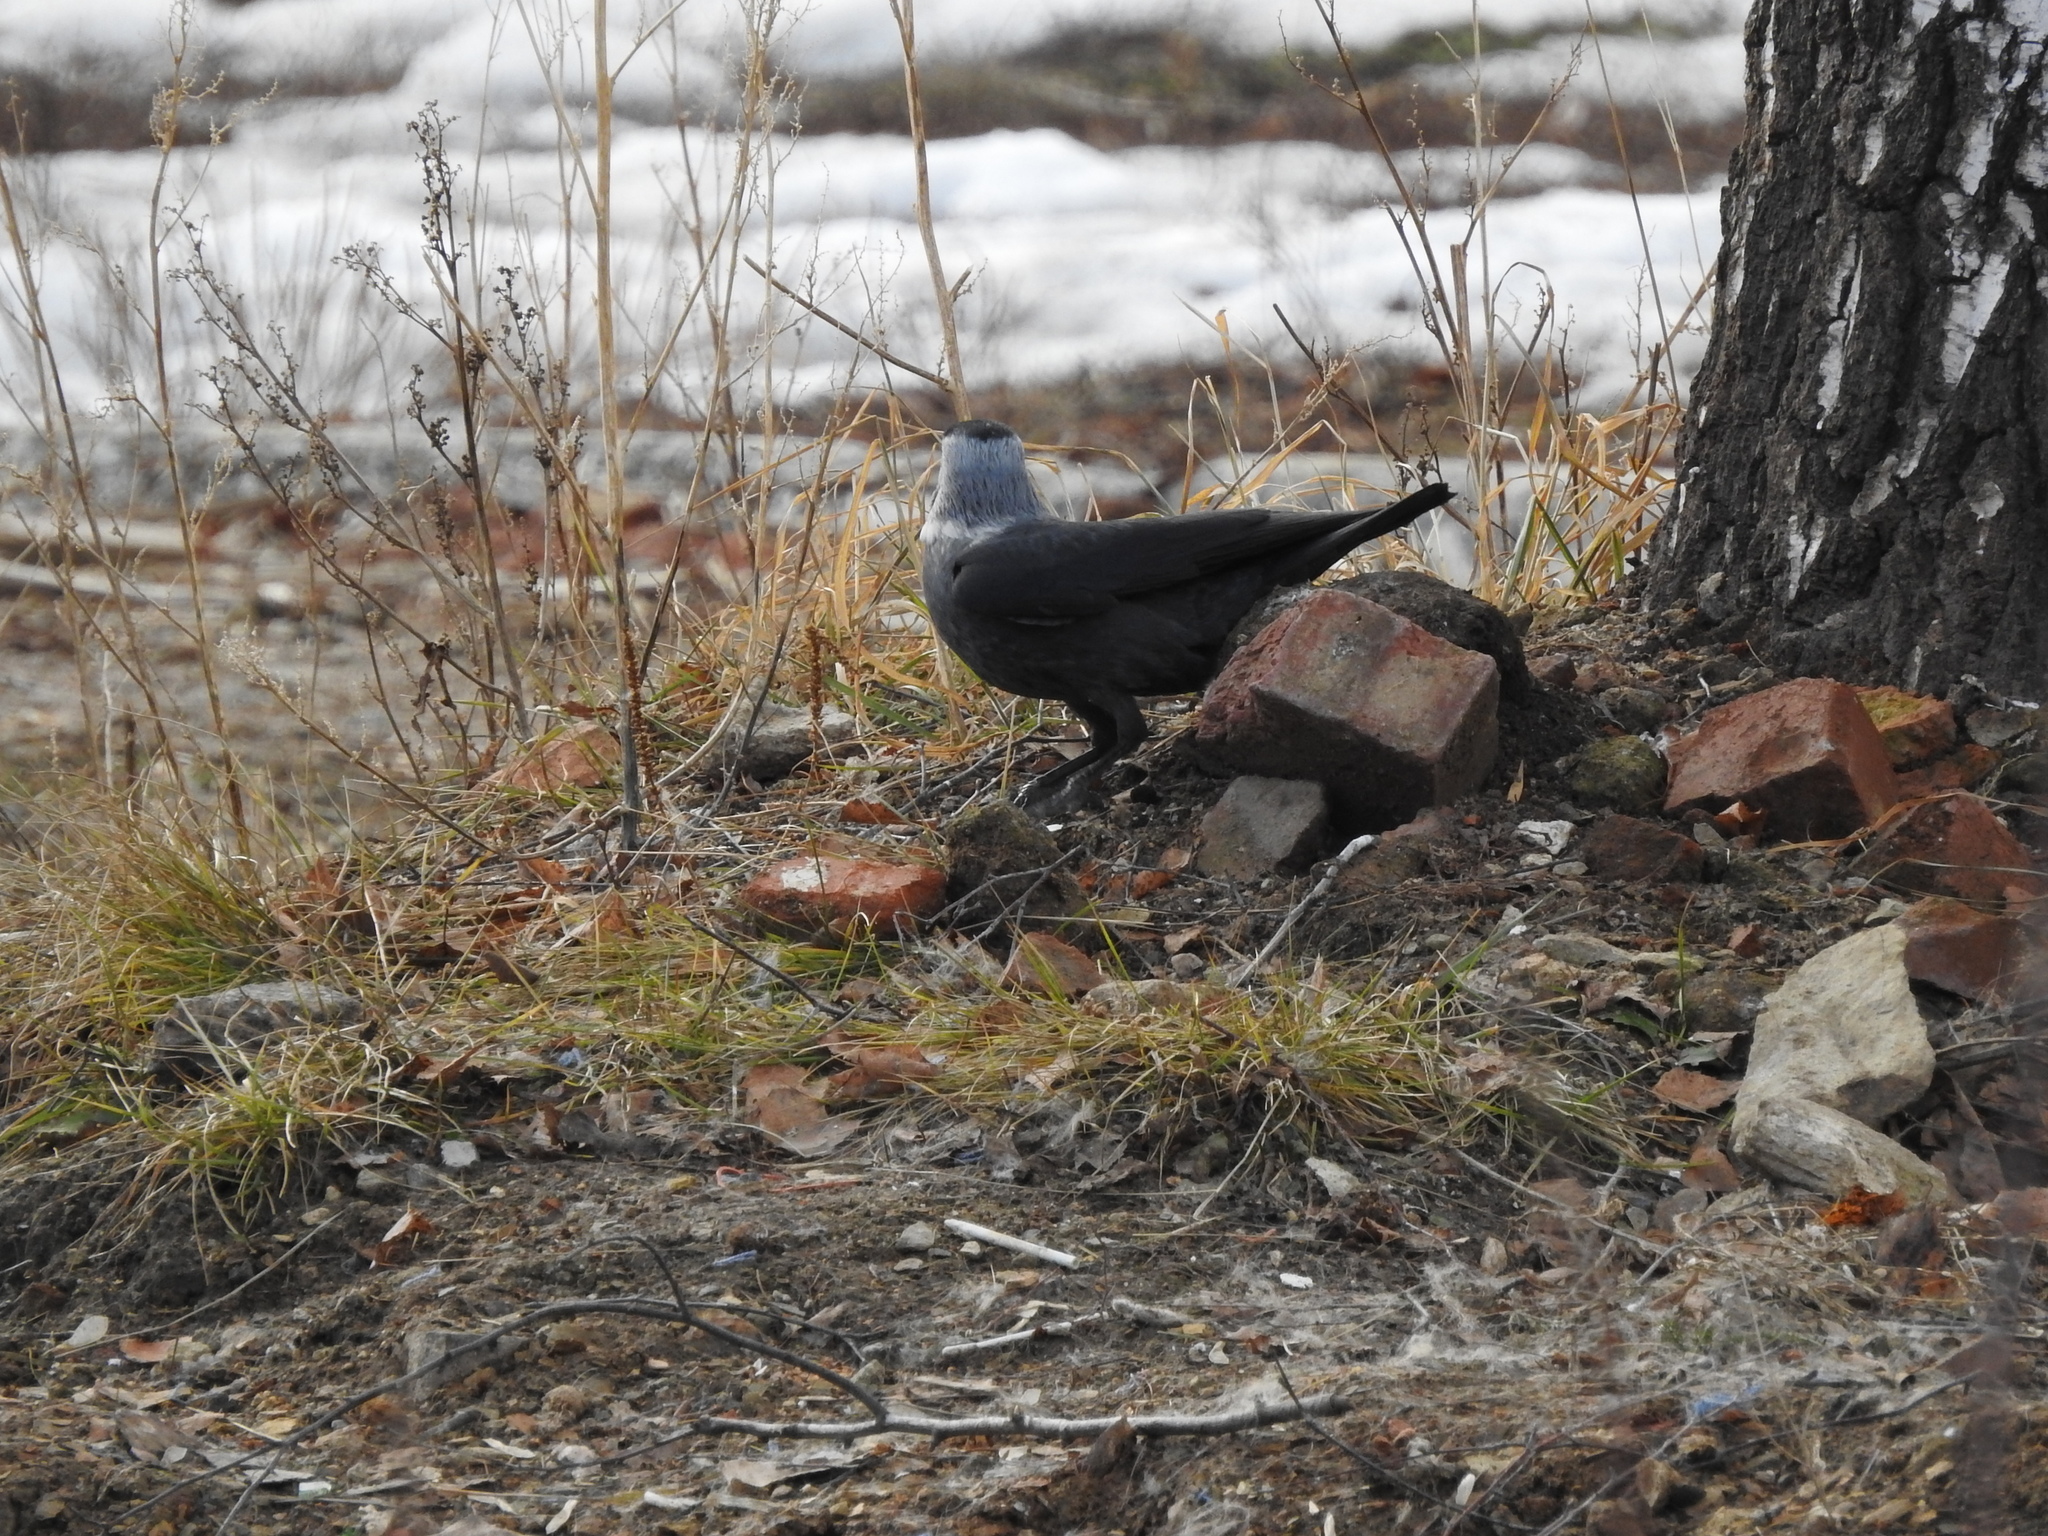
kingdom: Animalia
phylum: Chordata
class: Aves
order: Passeriformes
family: Corvidae
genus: Coloeus
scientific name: Coloeus monedula
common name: Western jackdaw
